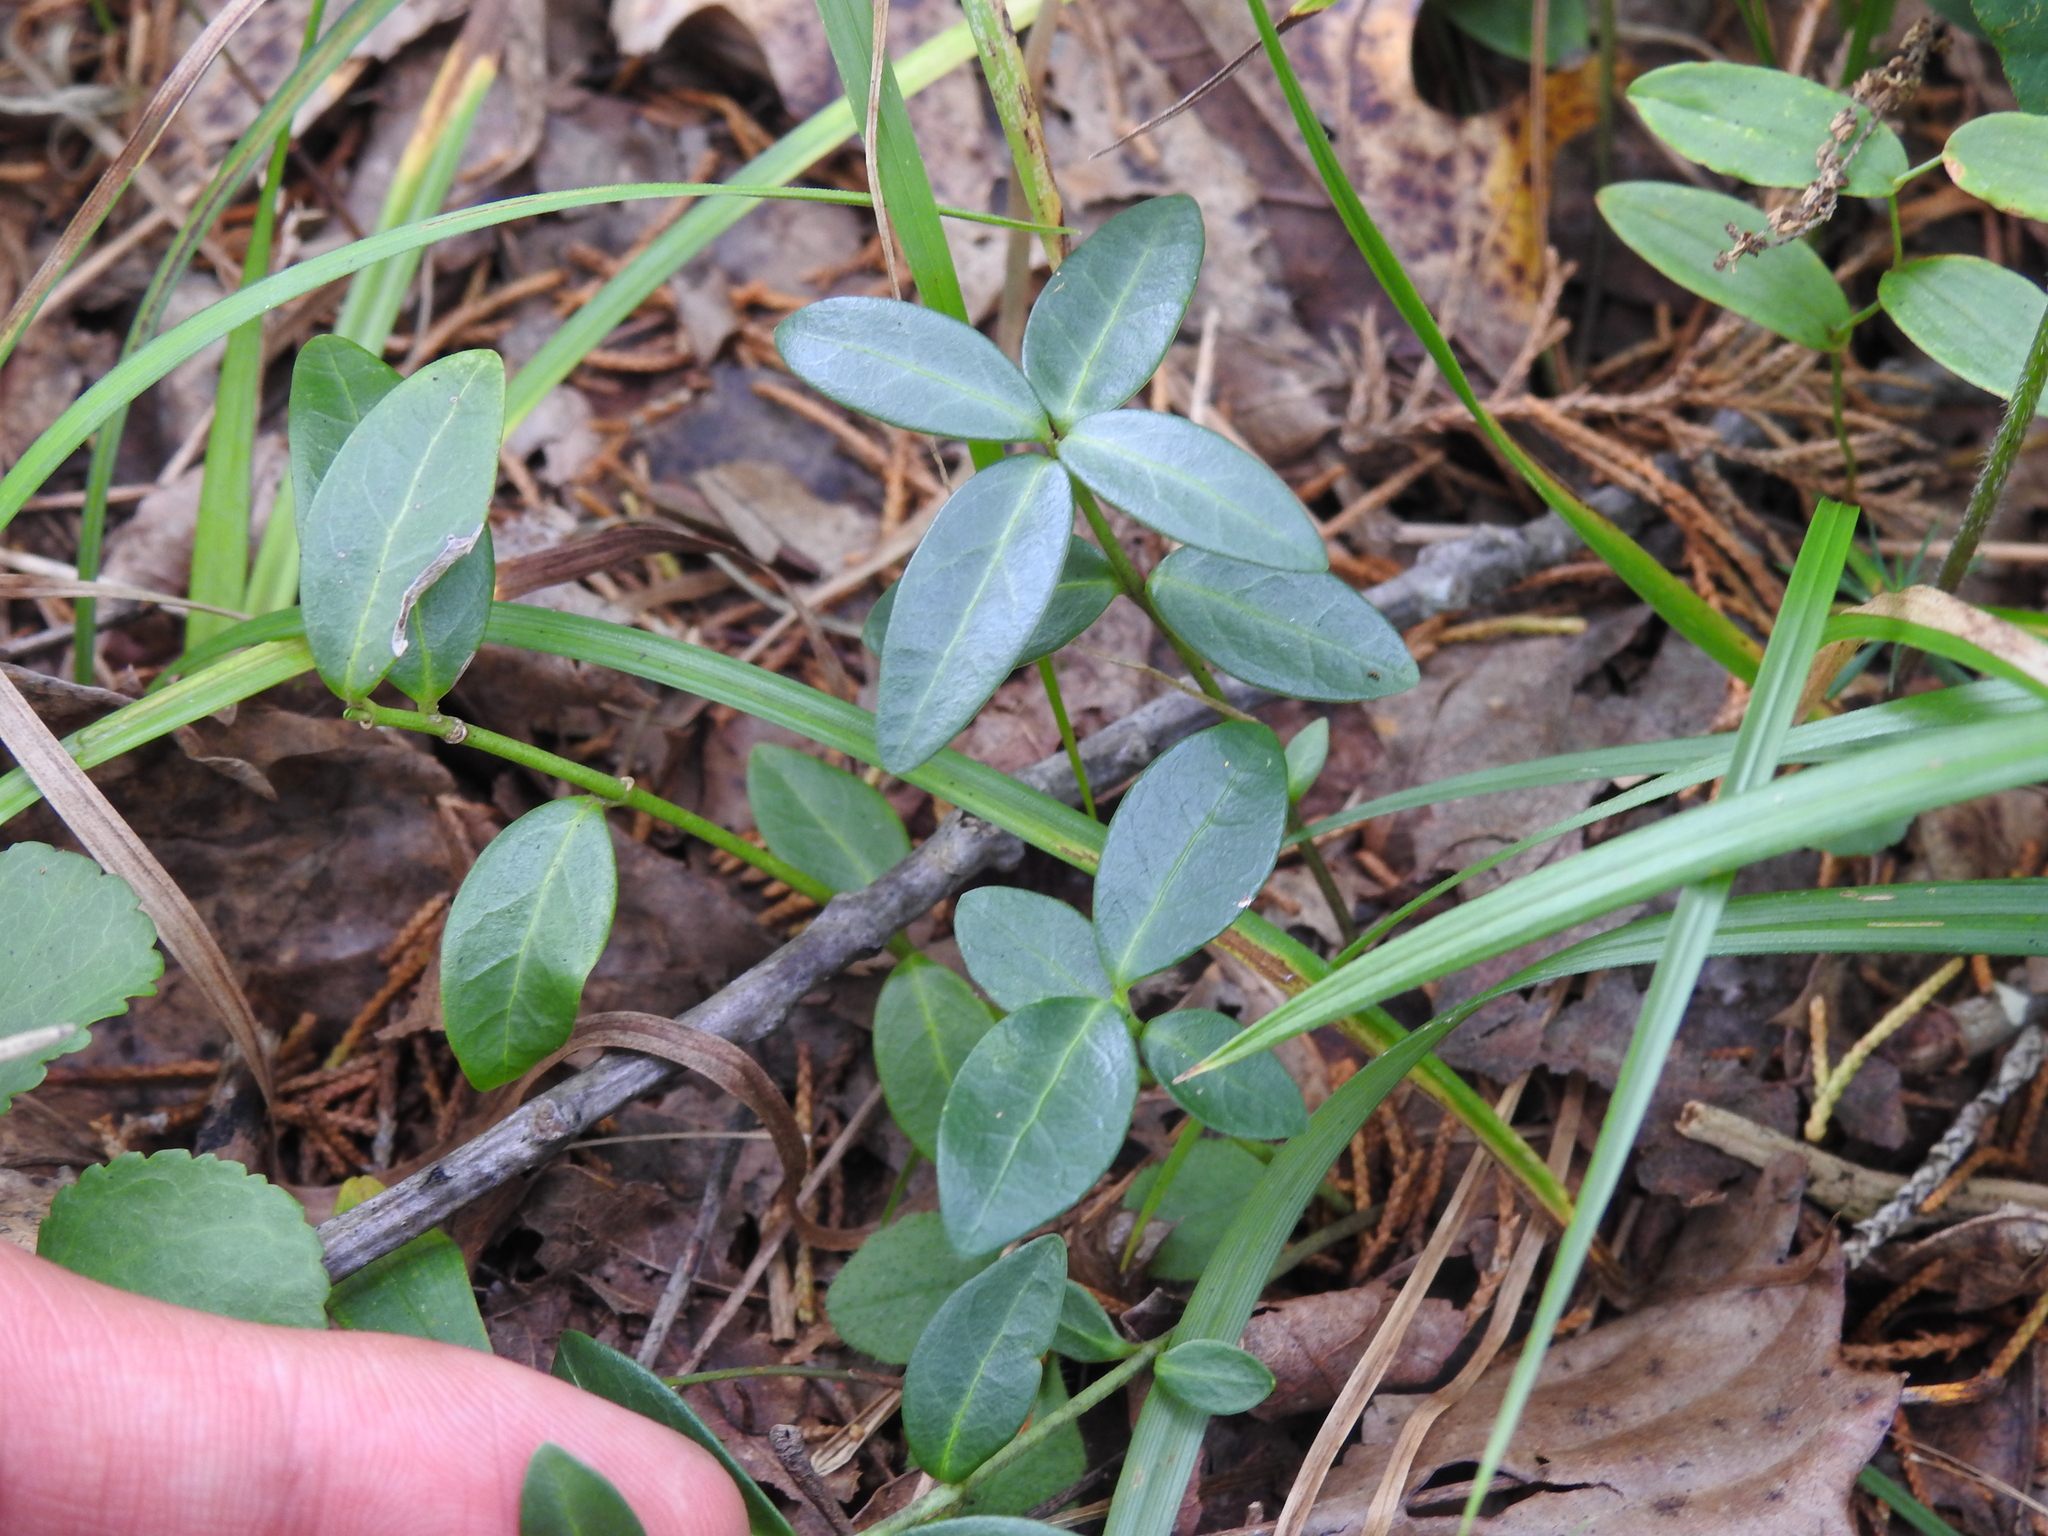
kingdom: Plantae
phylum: Tracheophyta
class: Magnoliopsida
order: Gentianales
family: Apocynaceae
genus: Vinca
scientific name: Vinca minor
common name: Lesser periwinkle
